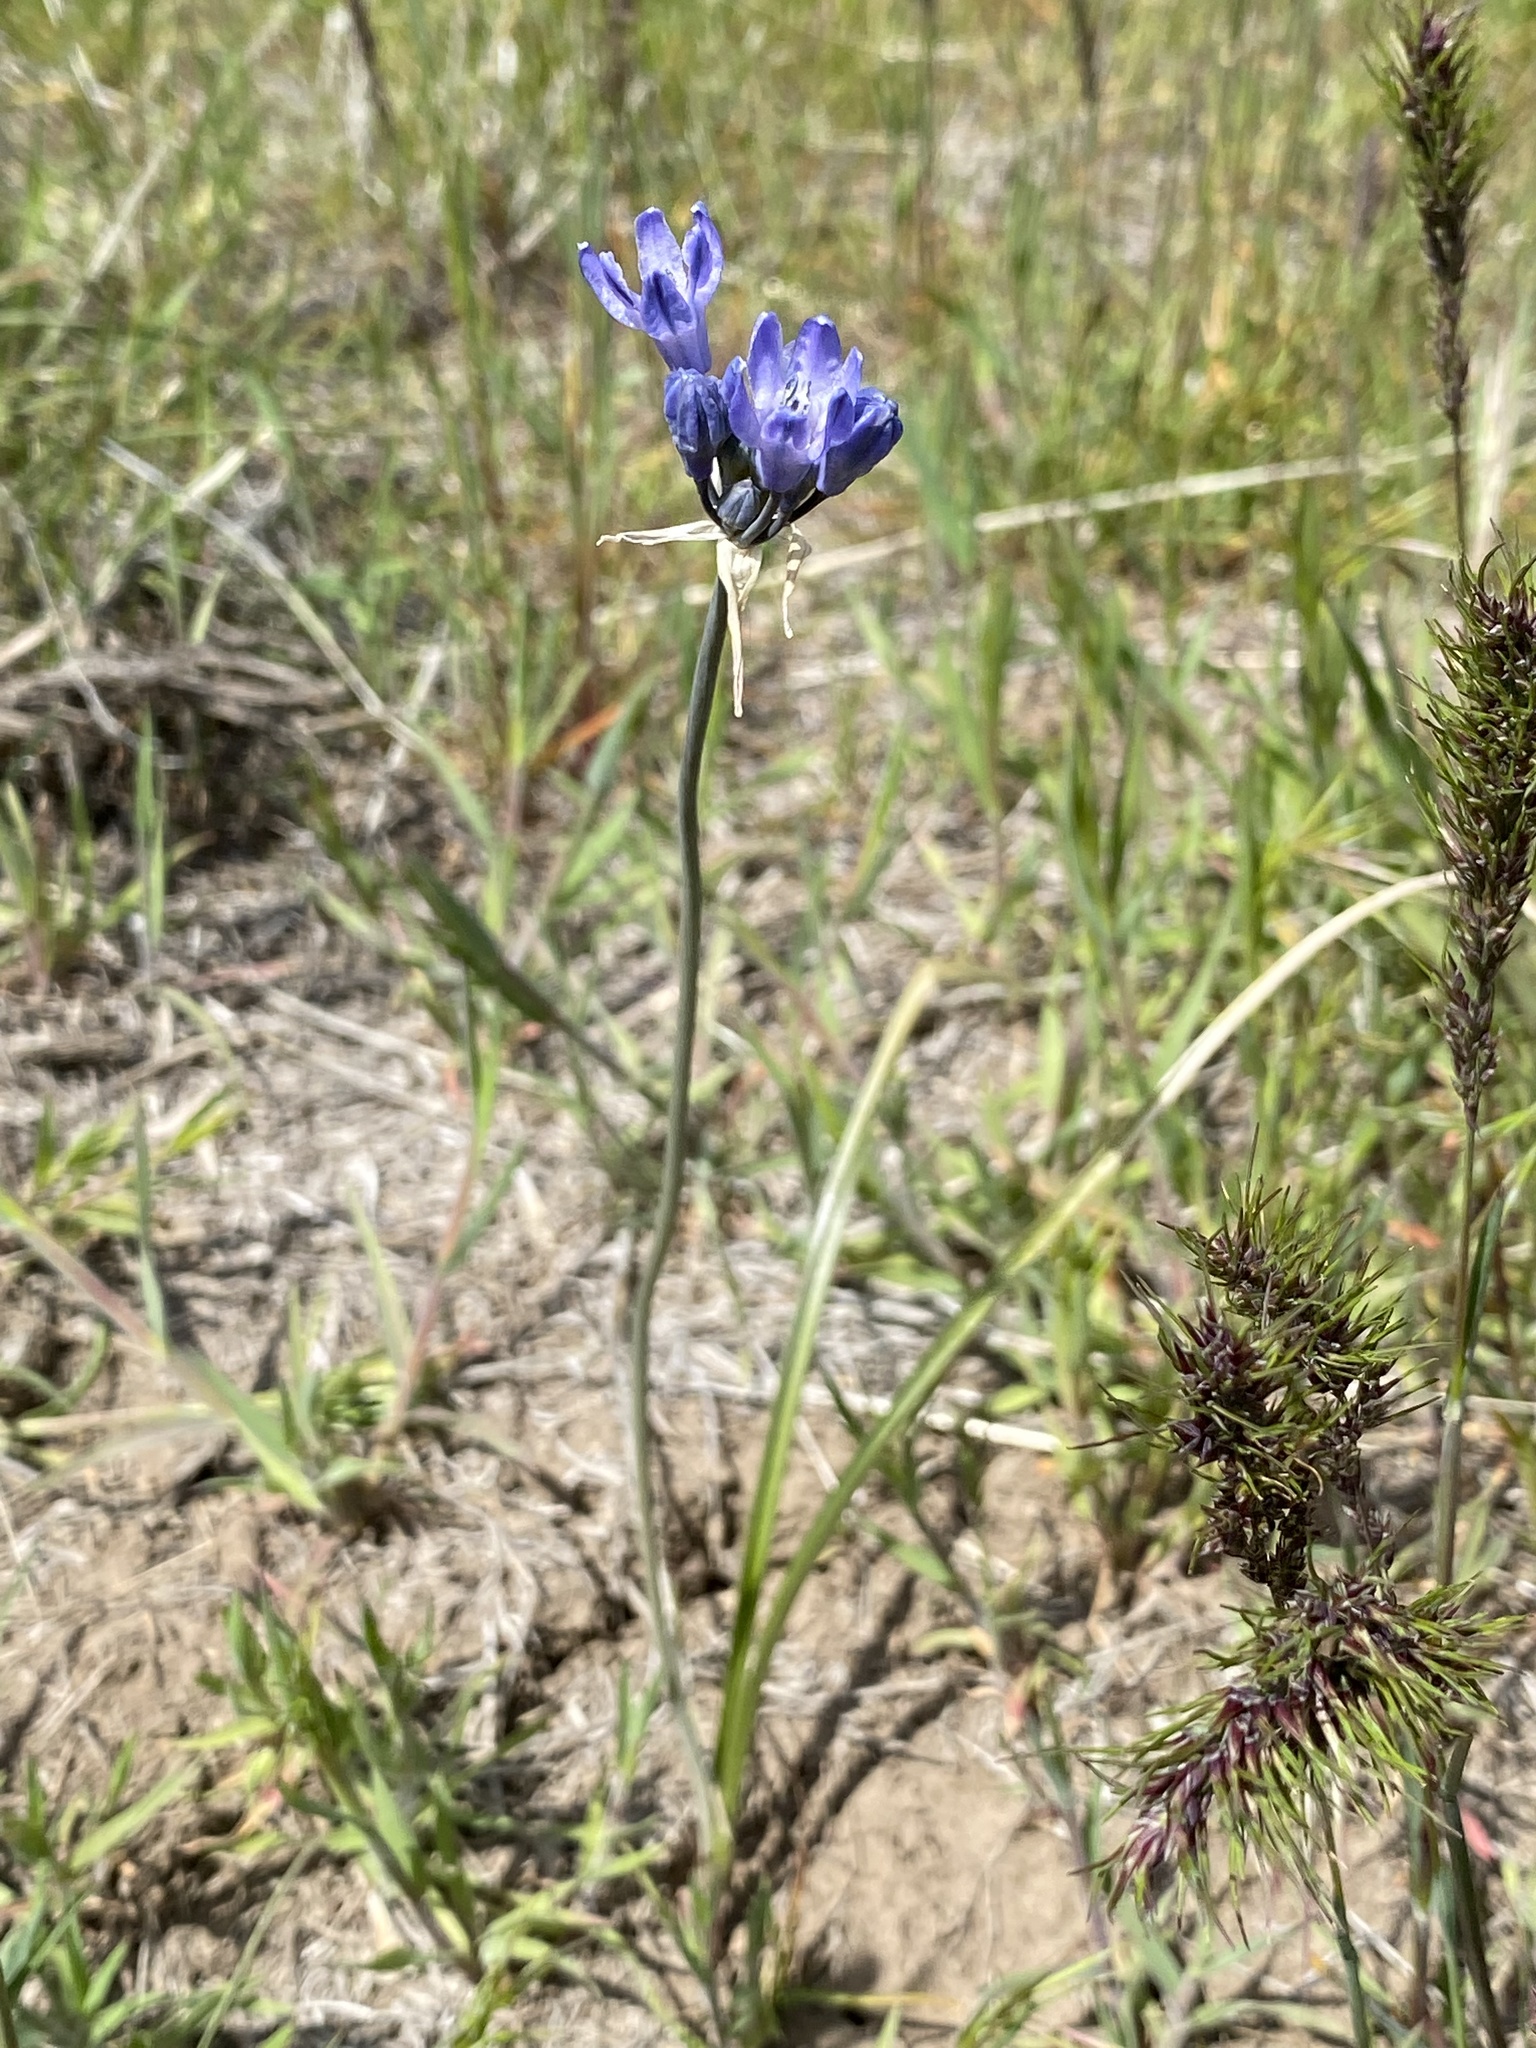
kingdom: Plantae
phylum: Tracheophyta
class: Liliopsida
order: Asparagales
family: Asparagaceae
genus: Triteleia
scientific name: Triteleia grandiflora
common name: Wild hyacinth
